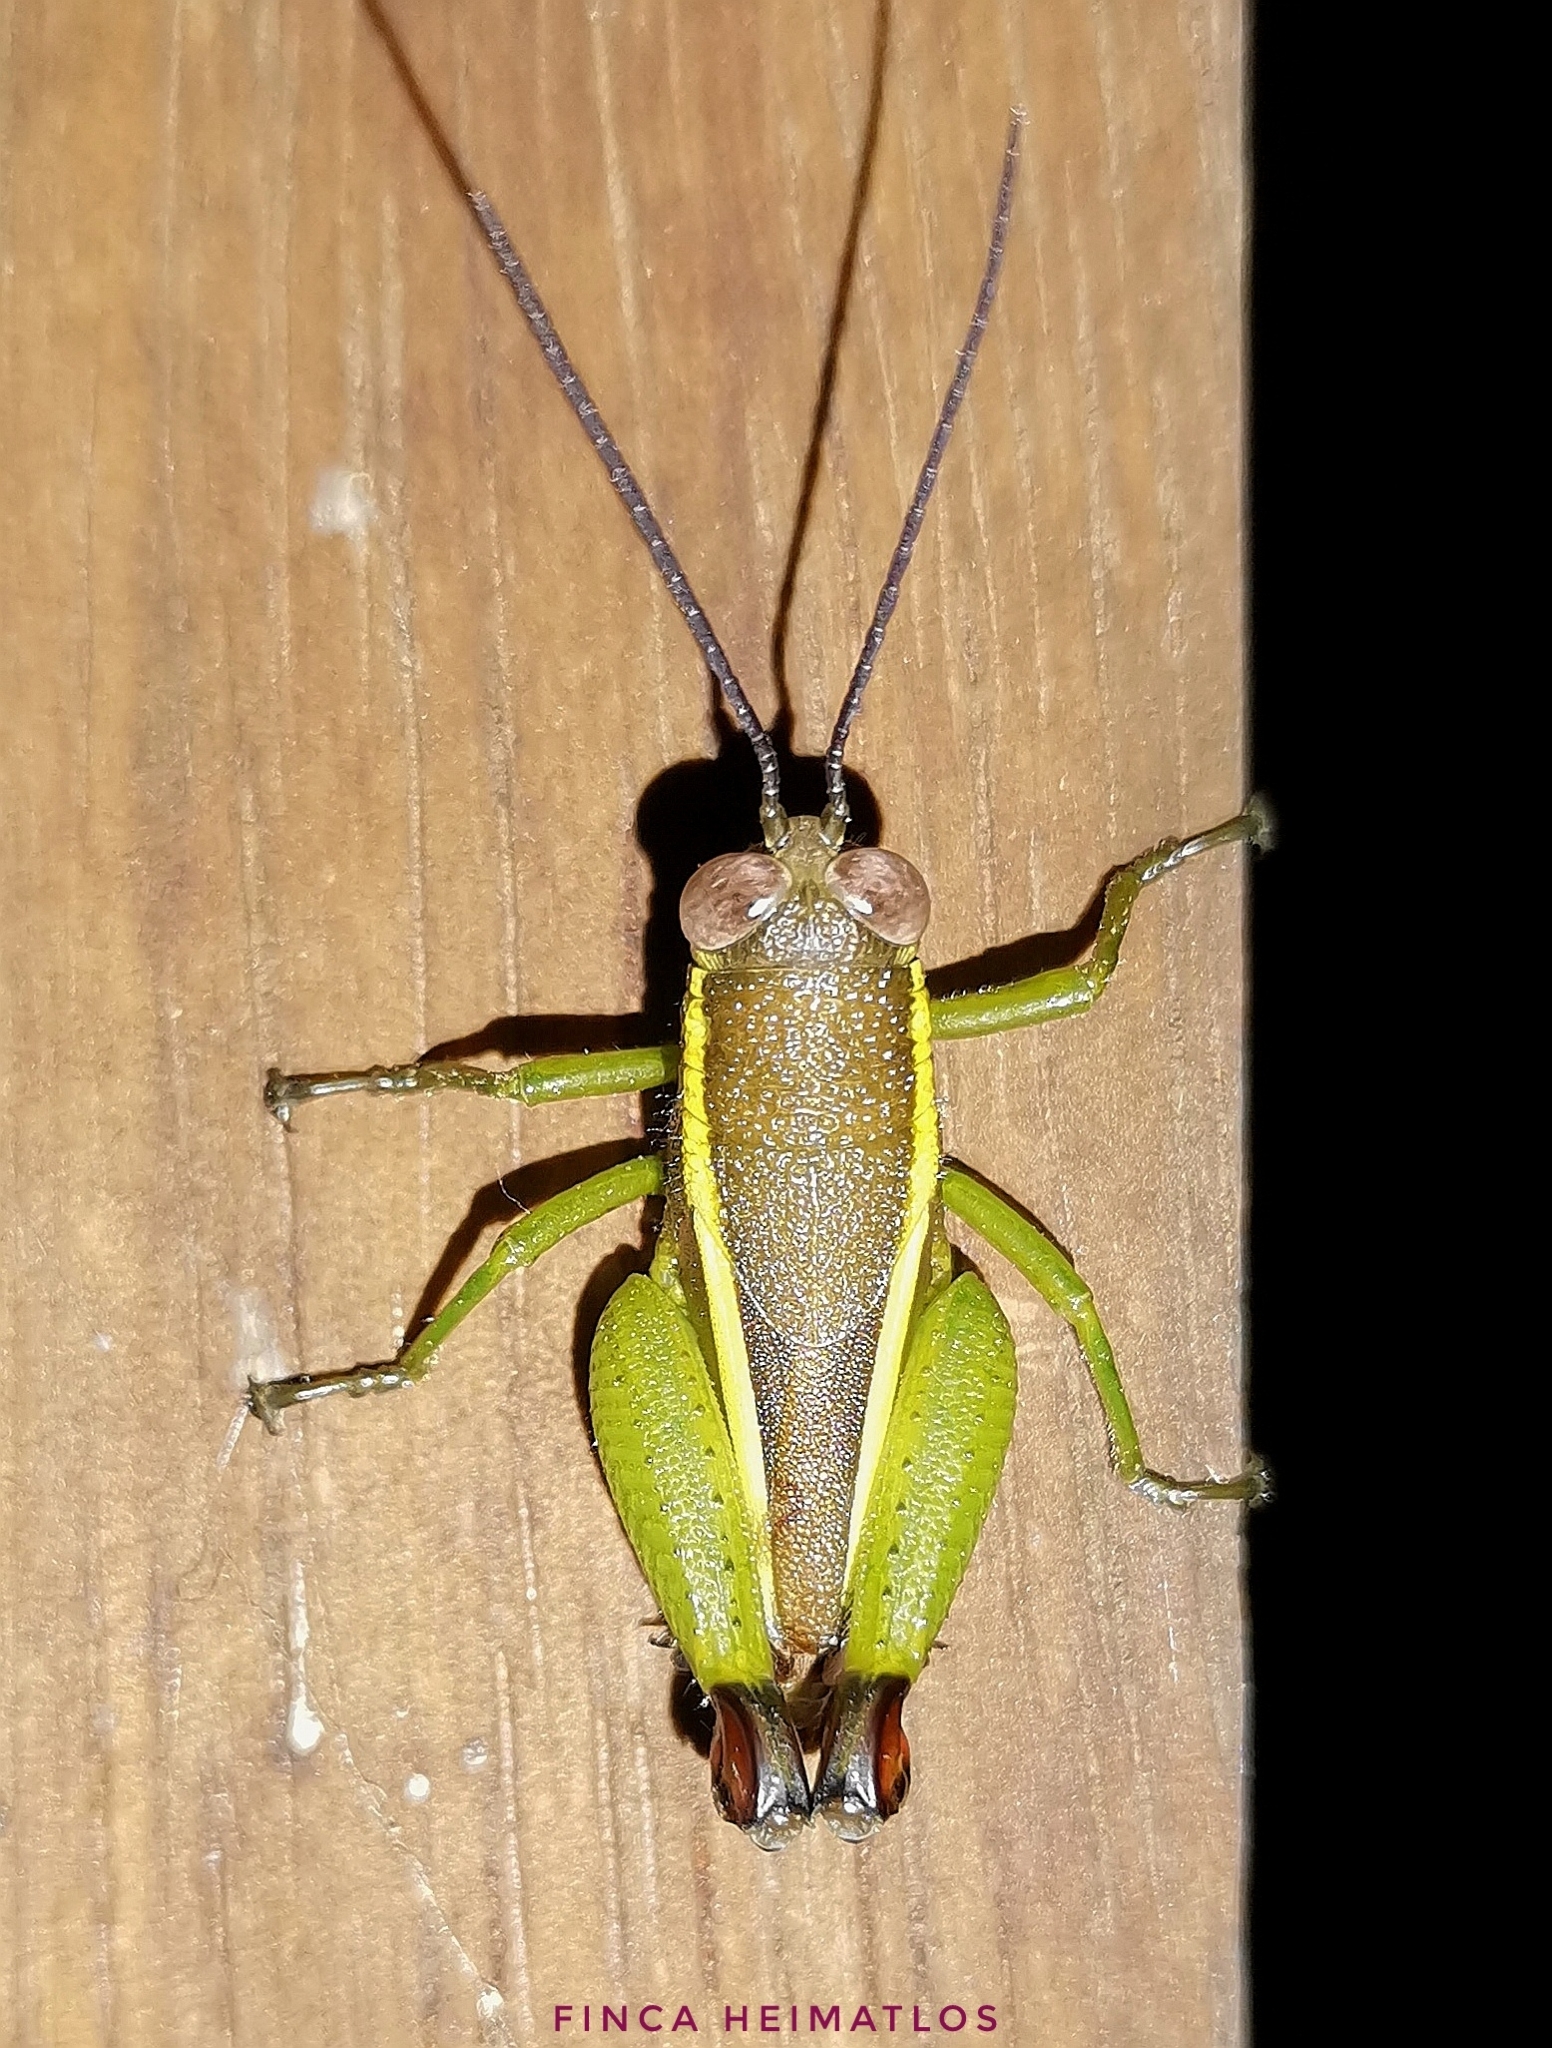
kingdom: Animalia
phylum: Arthropoda
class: Insecta
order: Orthoptera
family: Romaleidae
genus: Pseudeurostacris
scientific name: Pseudeurostacris valida
